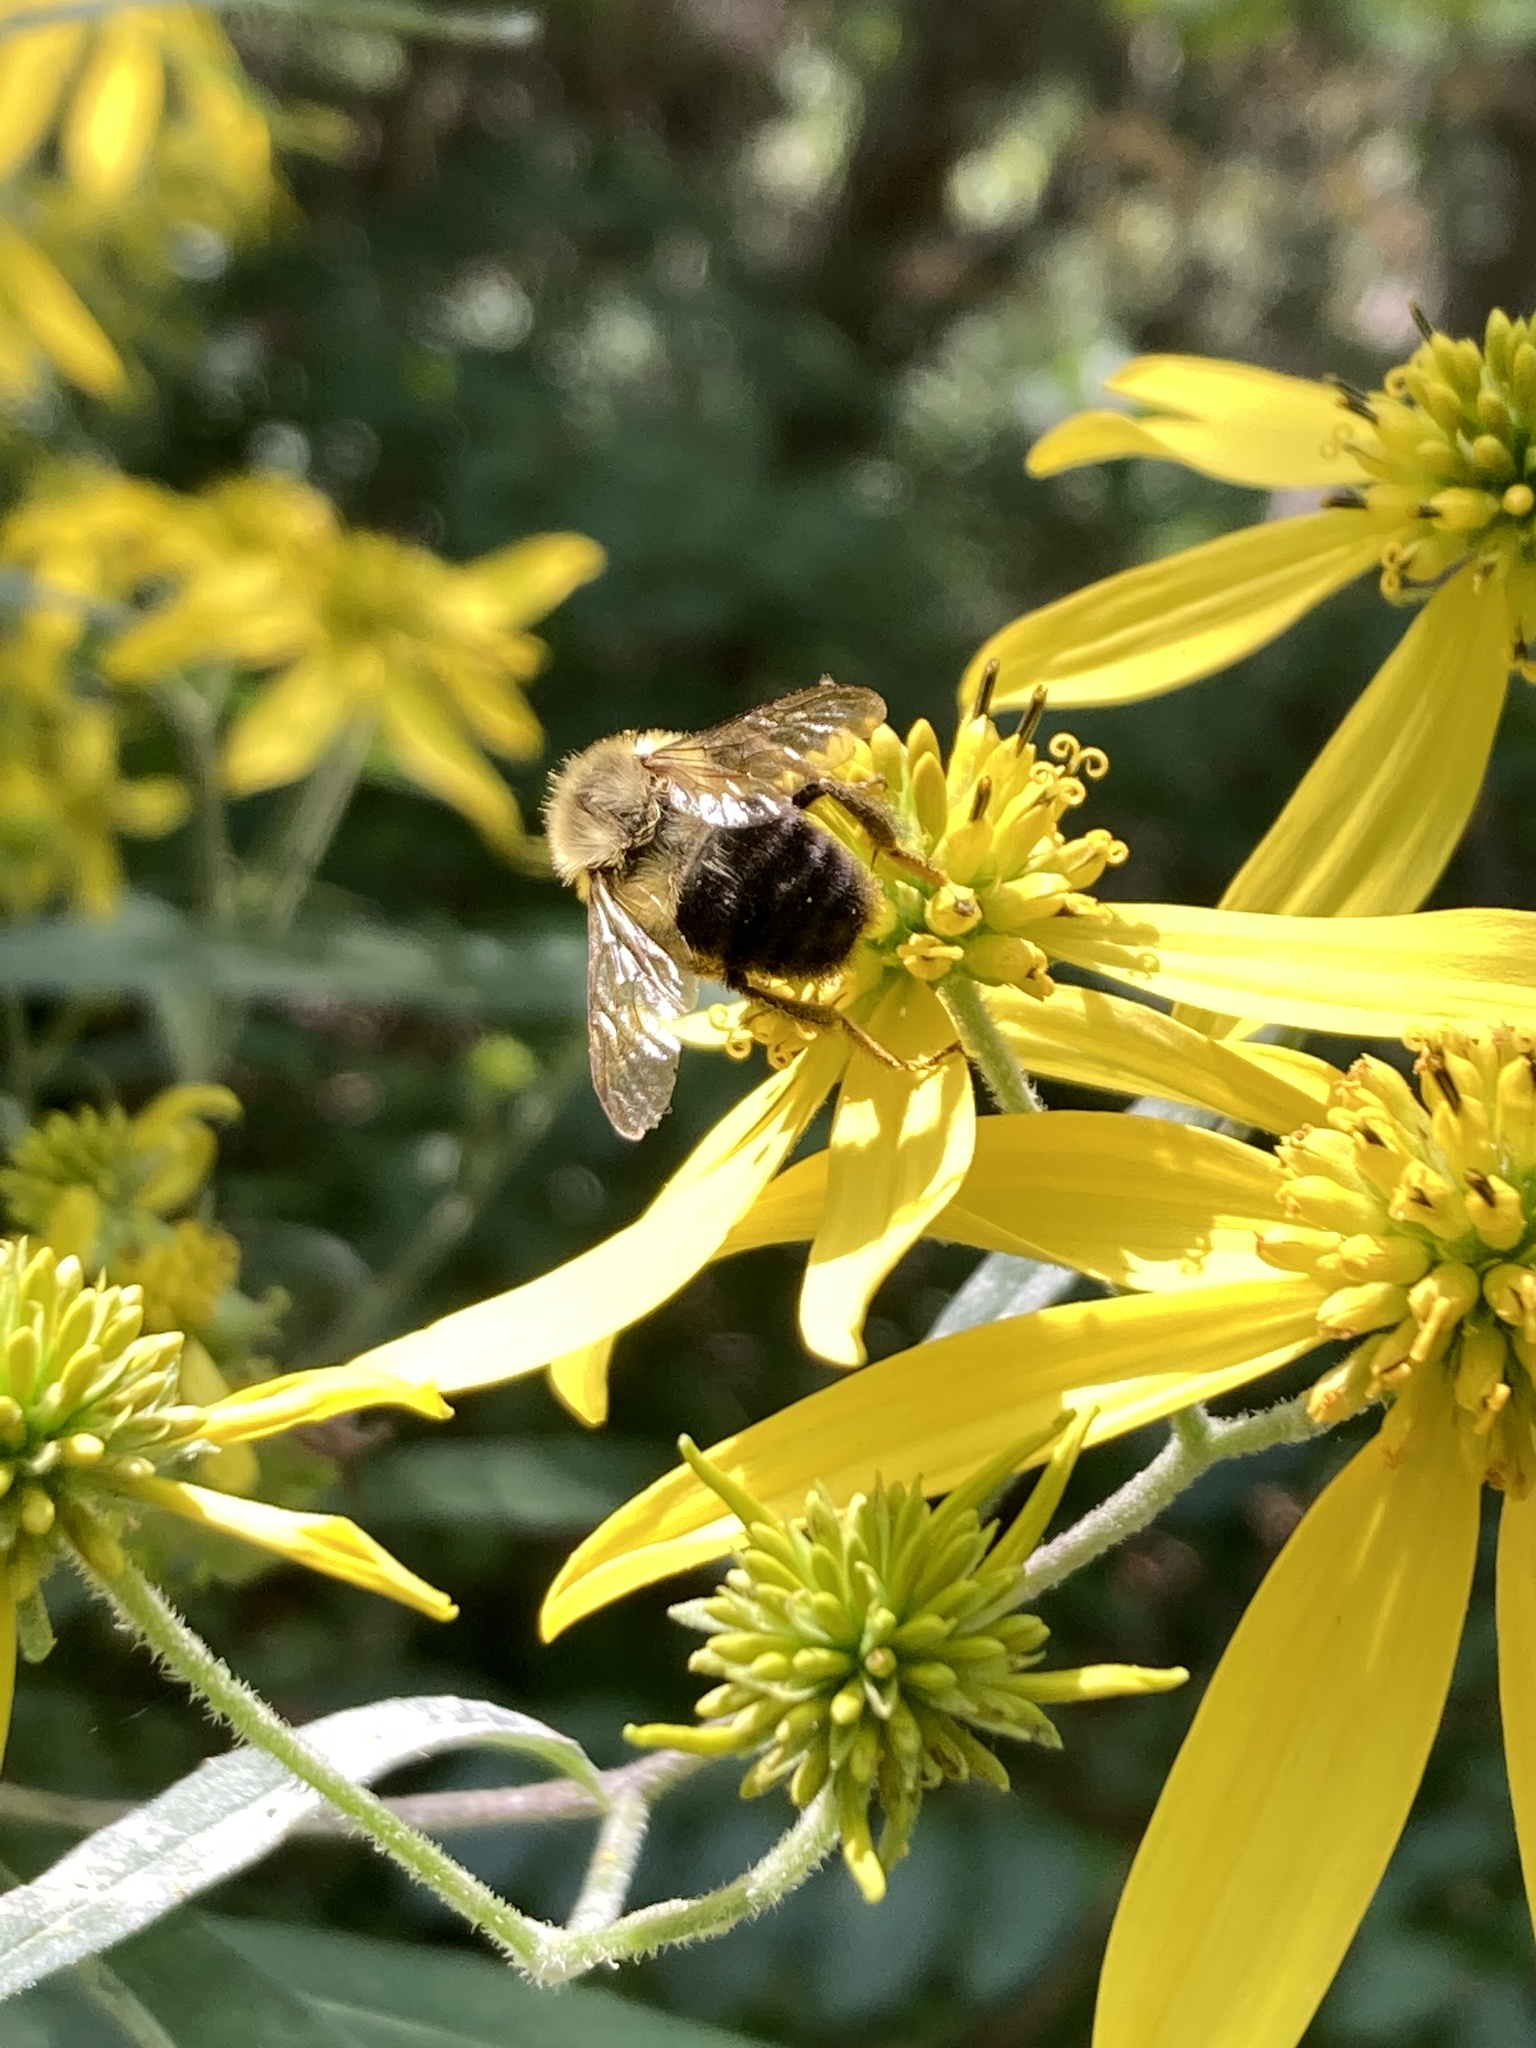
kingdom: Animalia
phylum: Arthropoda
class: Insecta
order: Hymenoptera
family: Apidae
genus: Bombus
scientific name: Bombus impatiens
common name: Common eastern bumble bee
